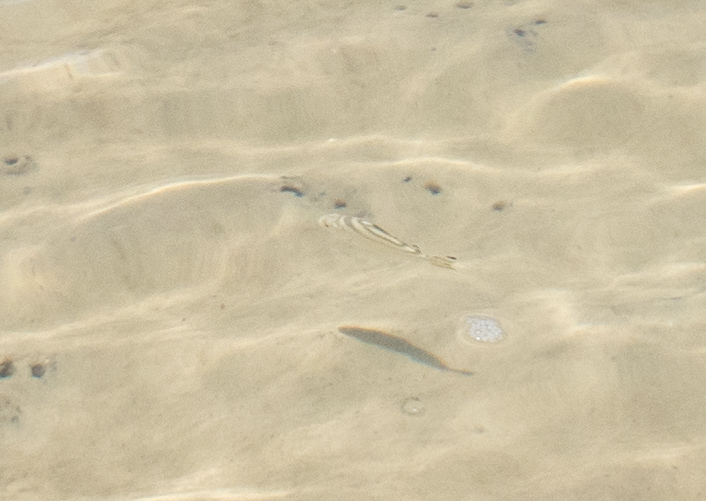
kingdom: Animalia
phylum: Chordata
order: Perciformes
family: Terapontidae
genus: Terapon
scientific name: Terapon jarbua
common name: Jarbua terapon
